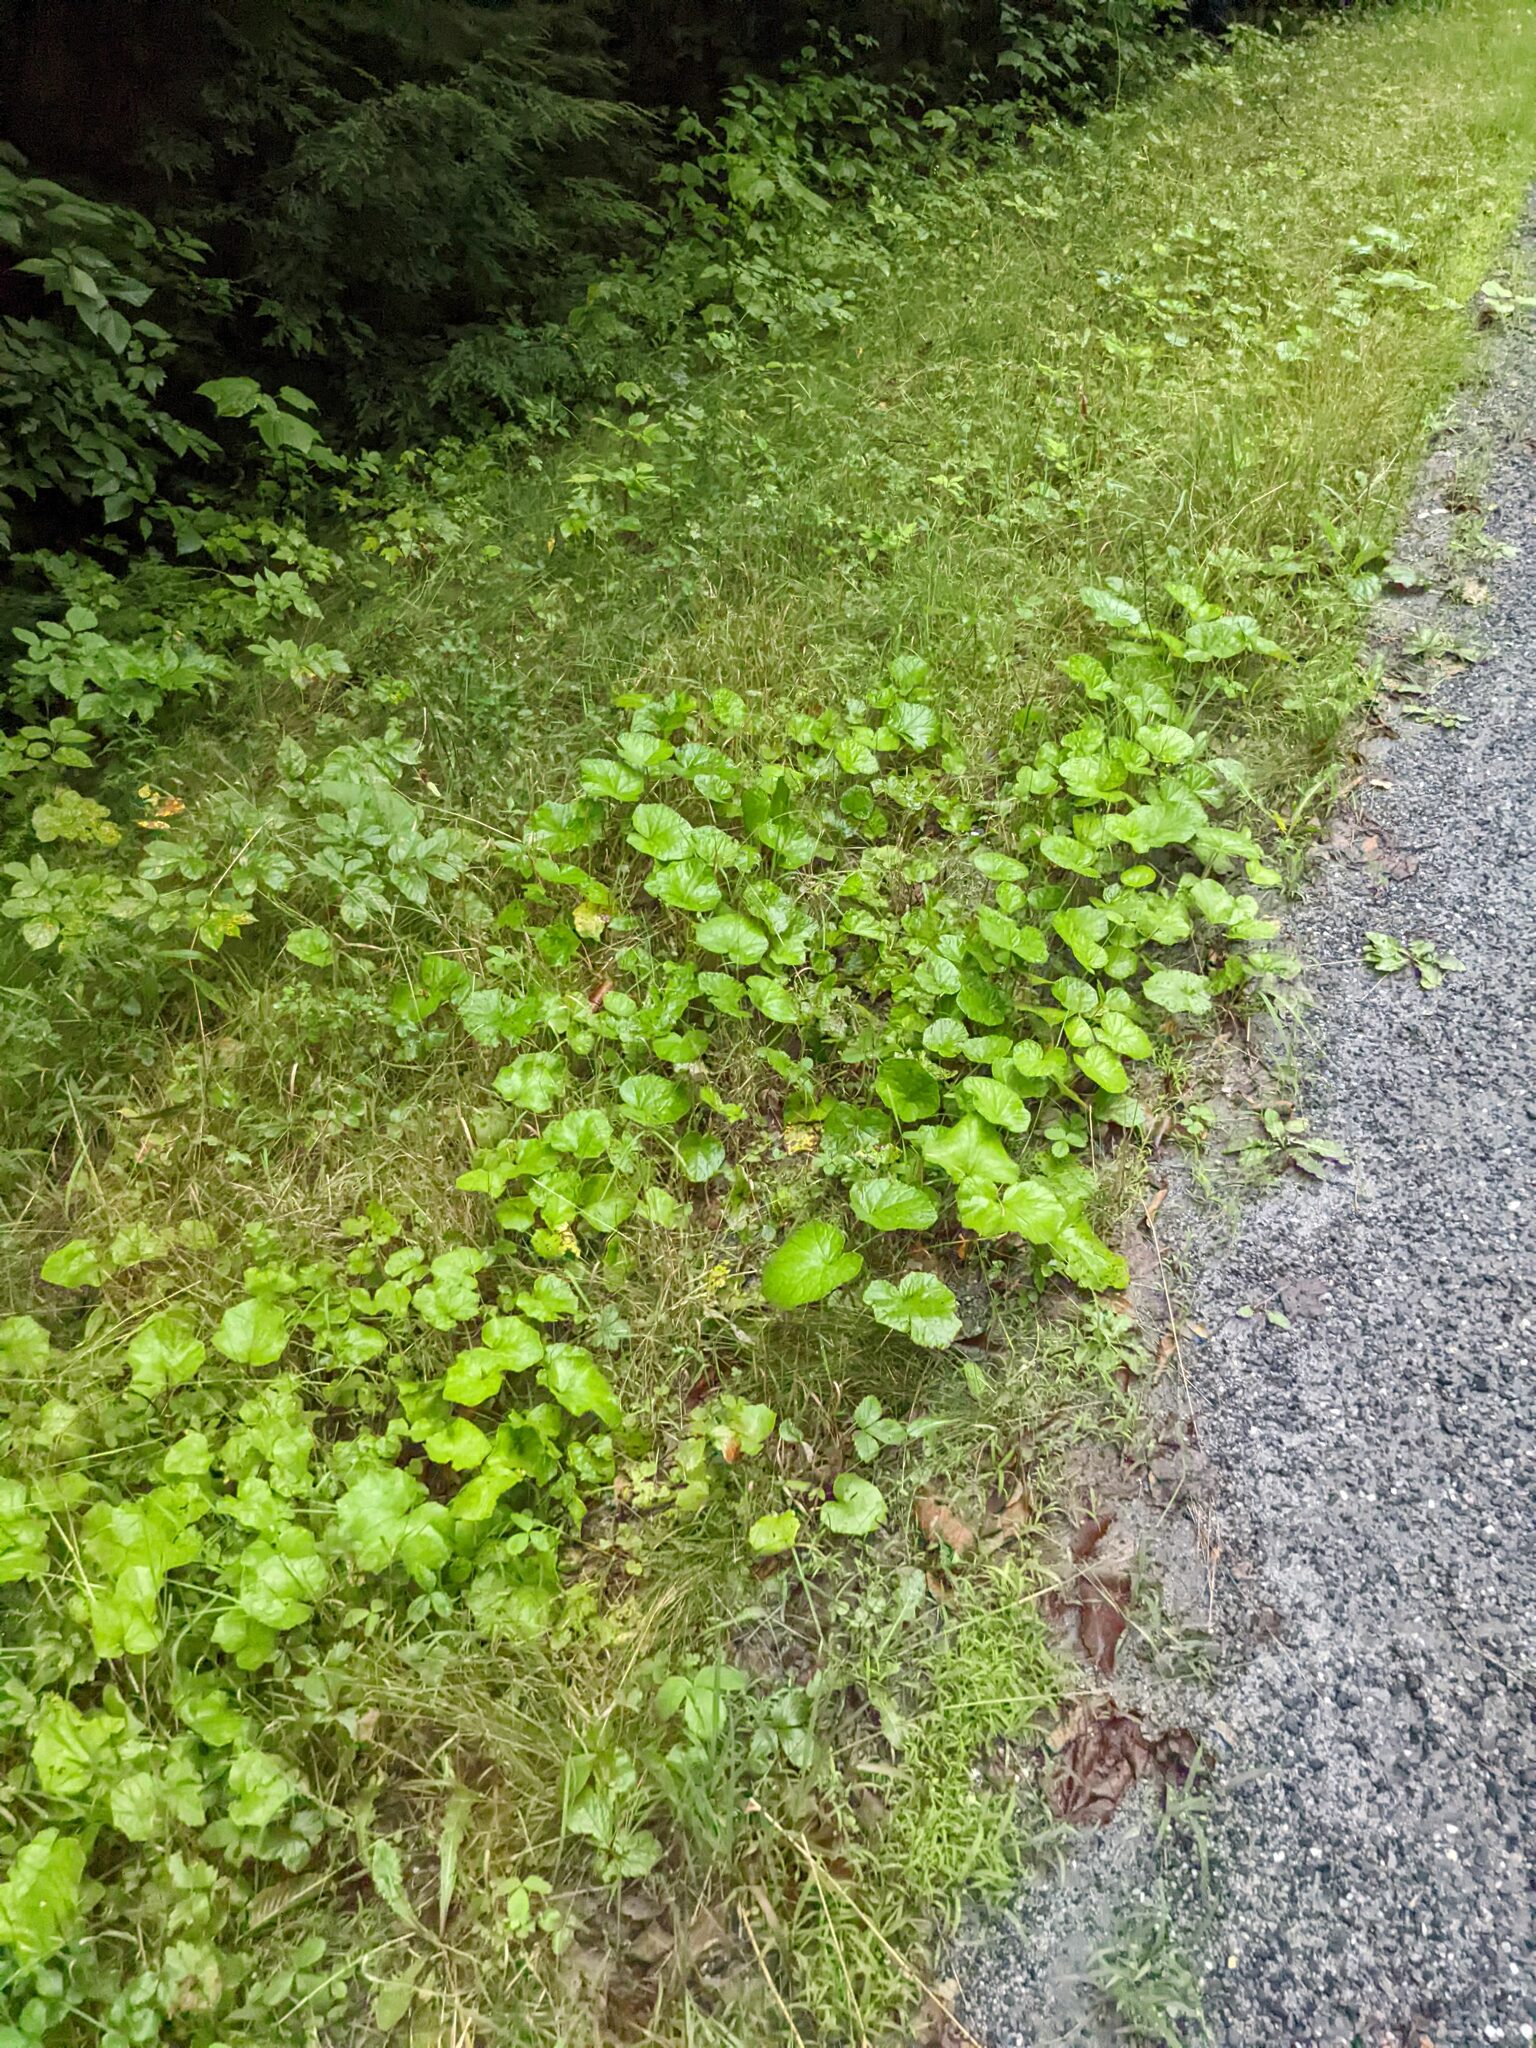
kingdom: Plantae
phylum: Tracheophyta
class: Magnoliopsida
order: Asterales
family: Asteraceae
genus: Tussilago
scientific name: Tussilago farfara
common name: Coltsfoot
